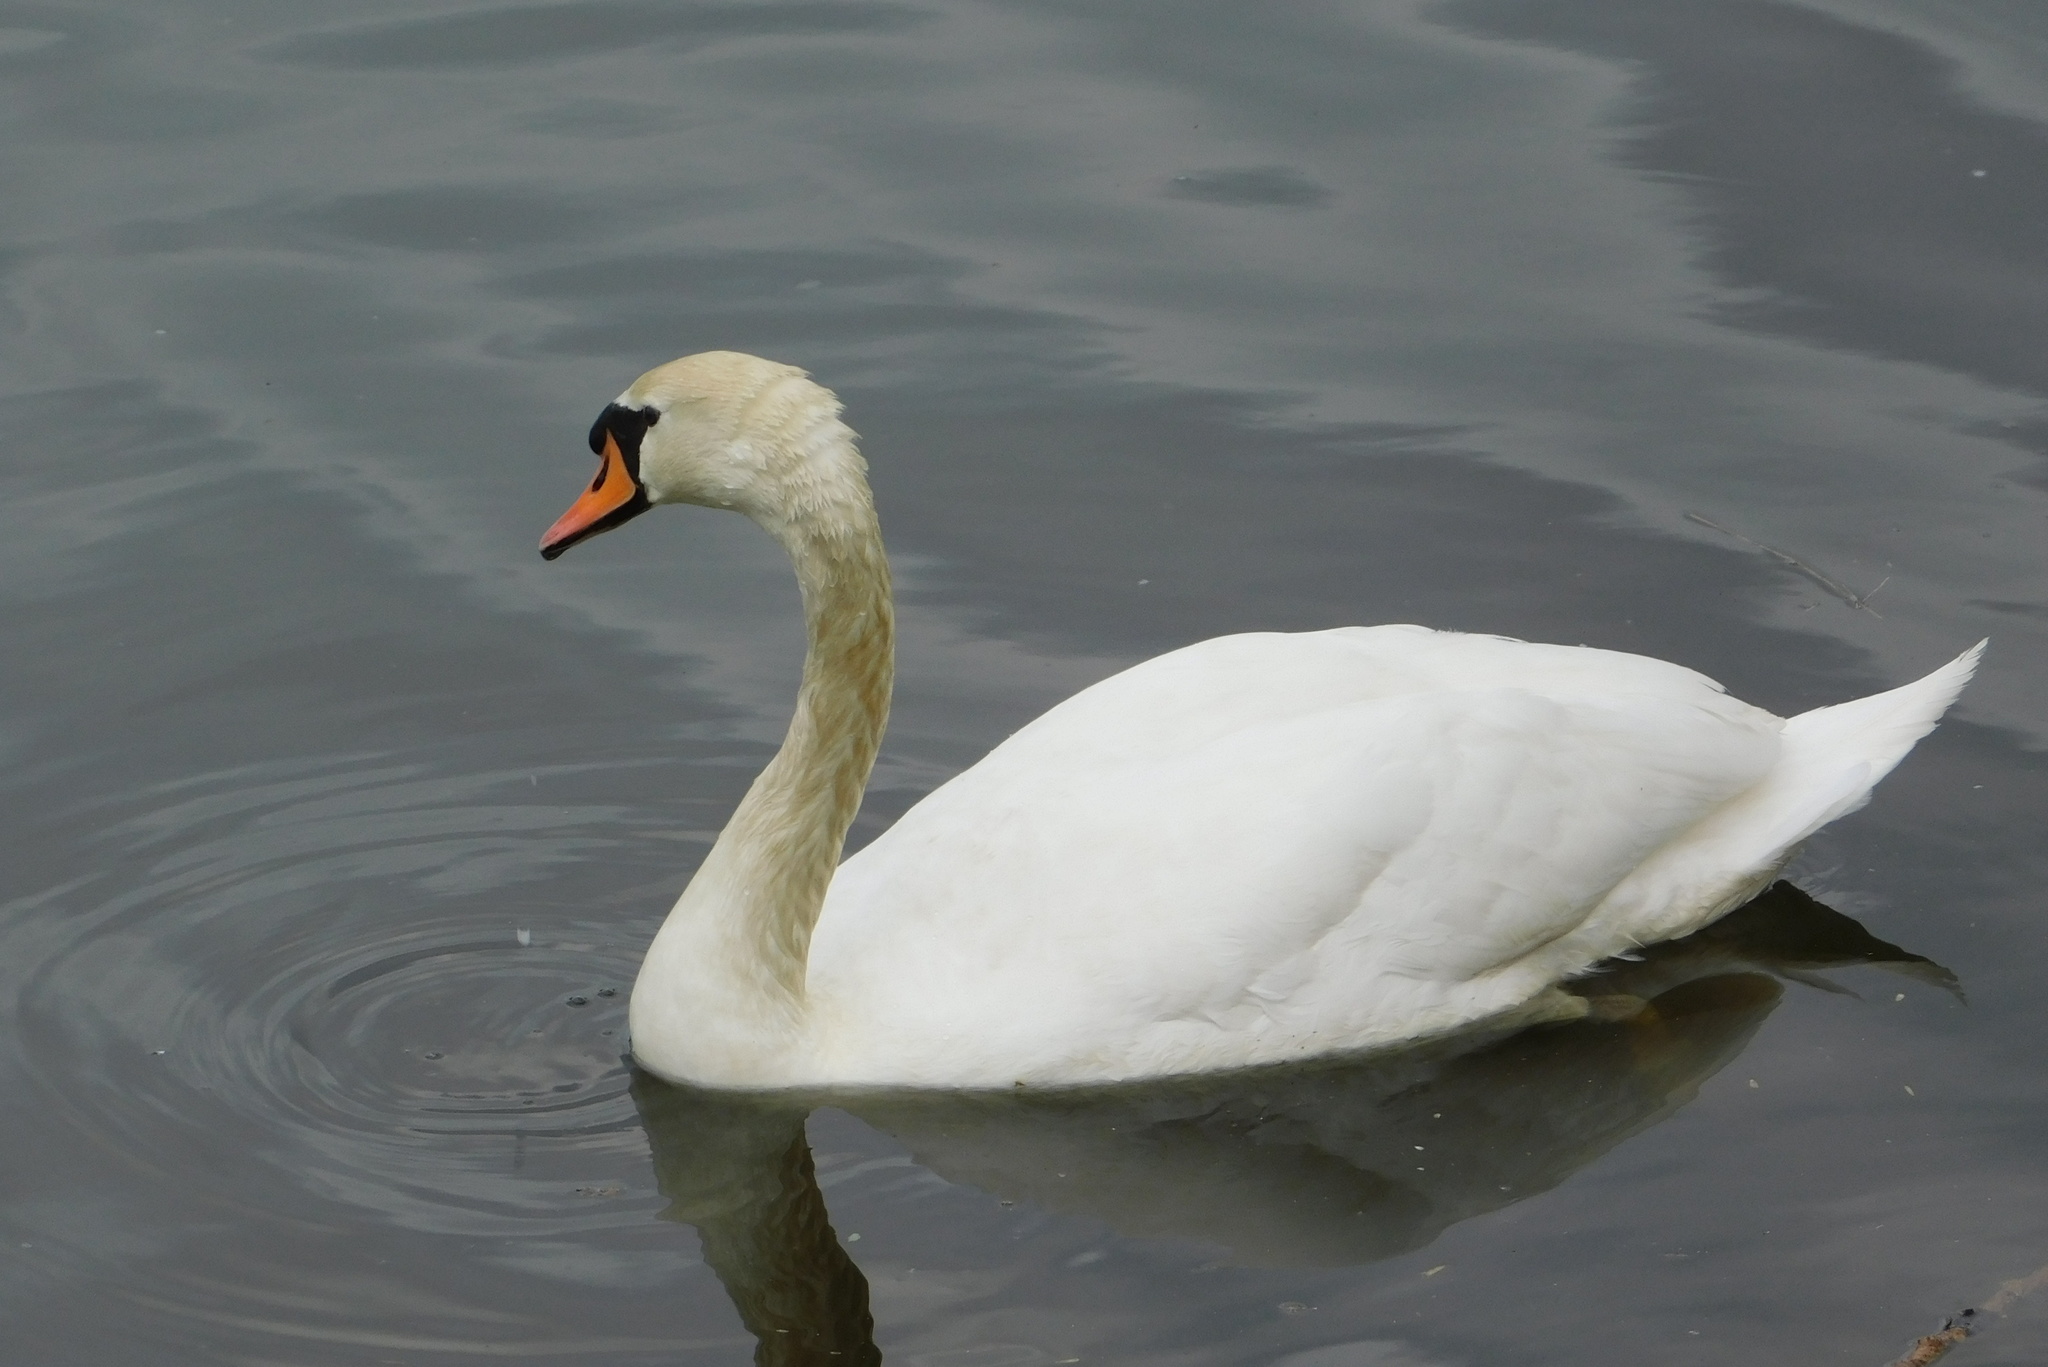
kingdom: Animalia
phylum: Chordata
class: Aves
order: Anseriformes
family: Anatidae
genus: Cygnus
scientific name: Cygnus olor
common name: Mute swan
